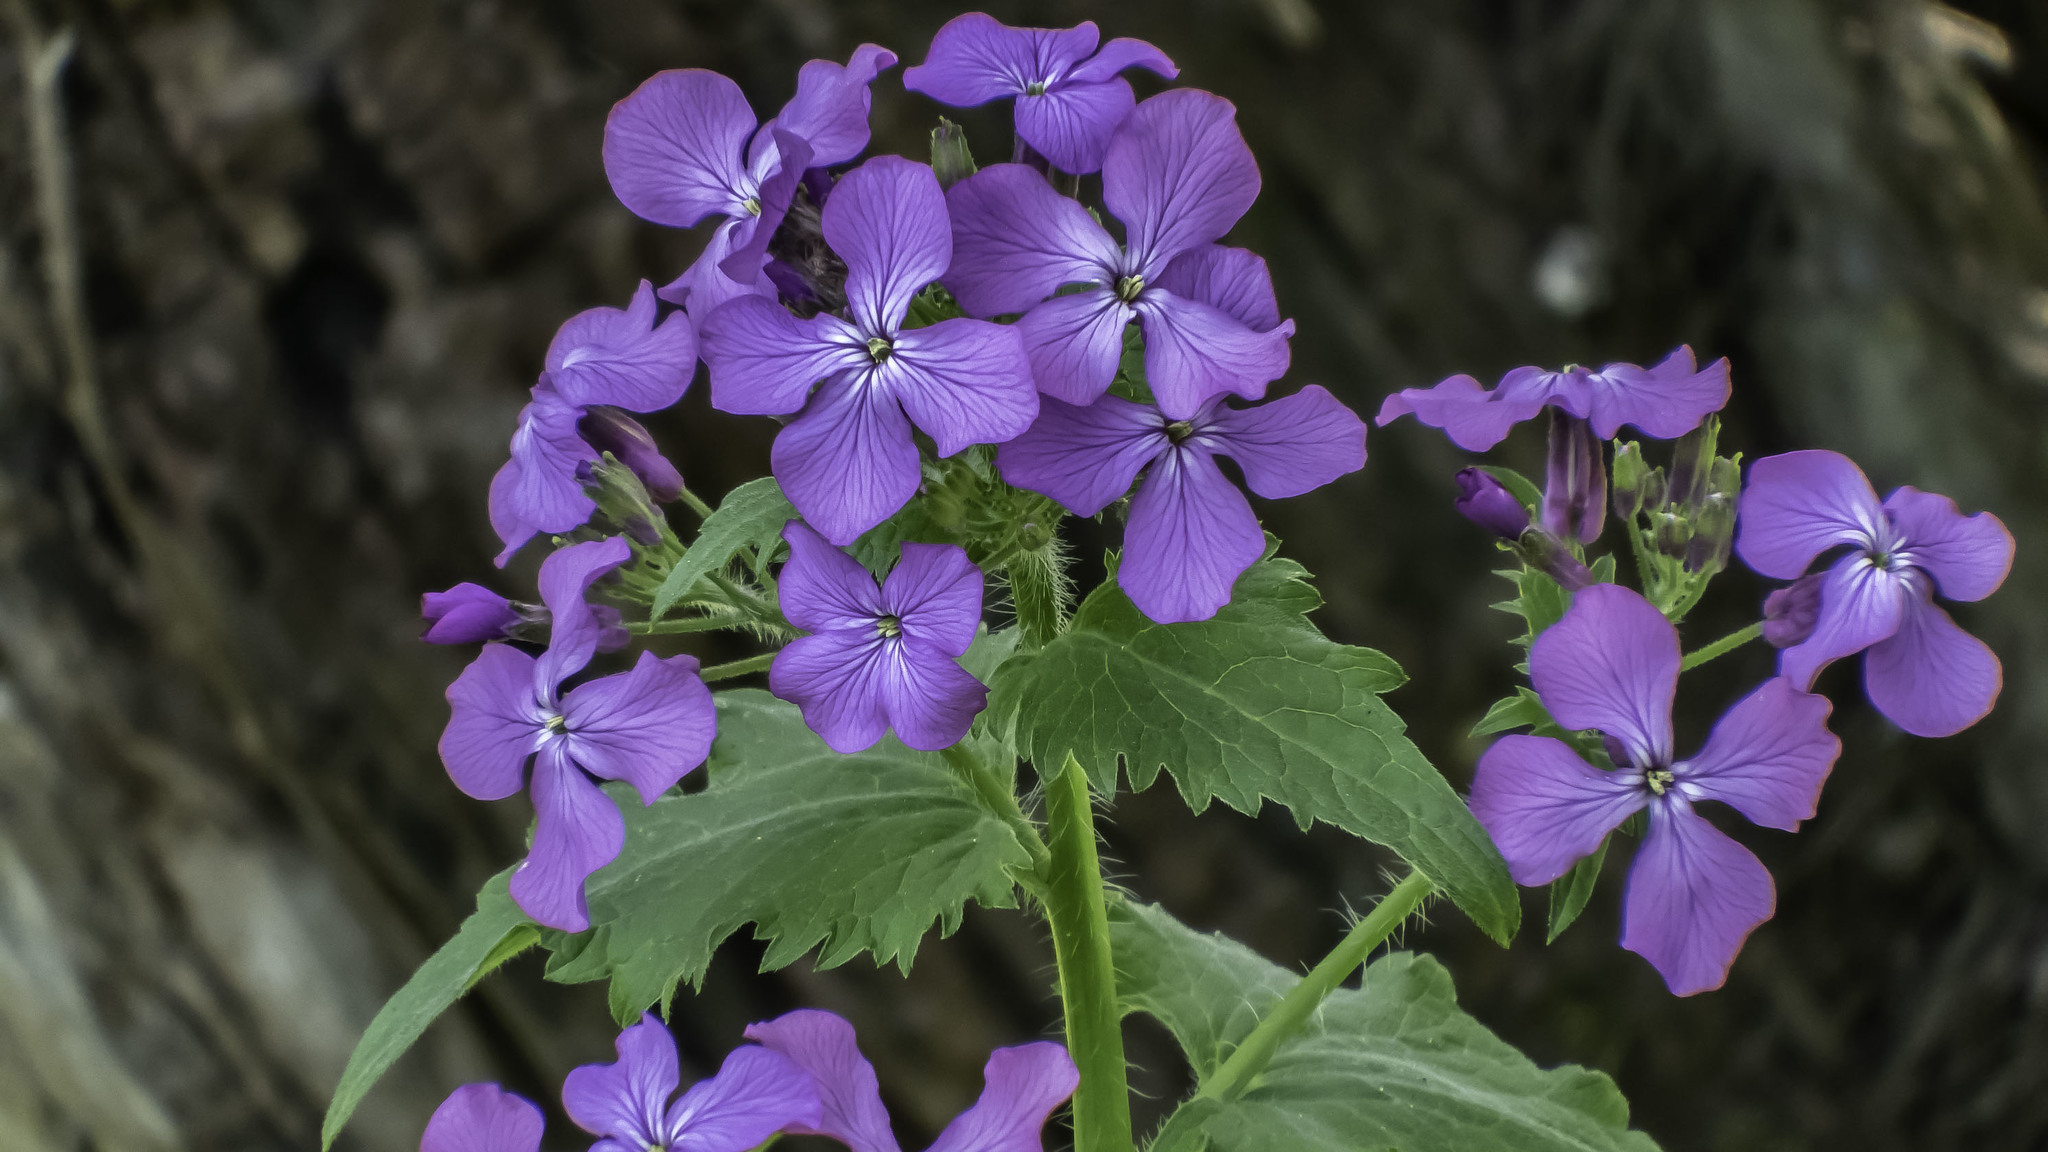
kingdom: Plantae
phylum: Tracheophyta
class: Magnoliopsida
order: Brassicales
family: Brassicaceae
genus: Lunaria
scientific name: Lunaria annua
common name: Honesty
